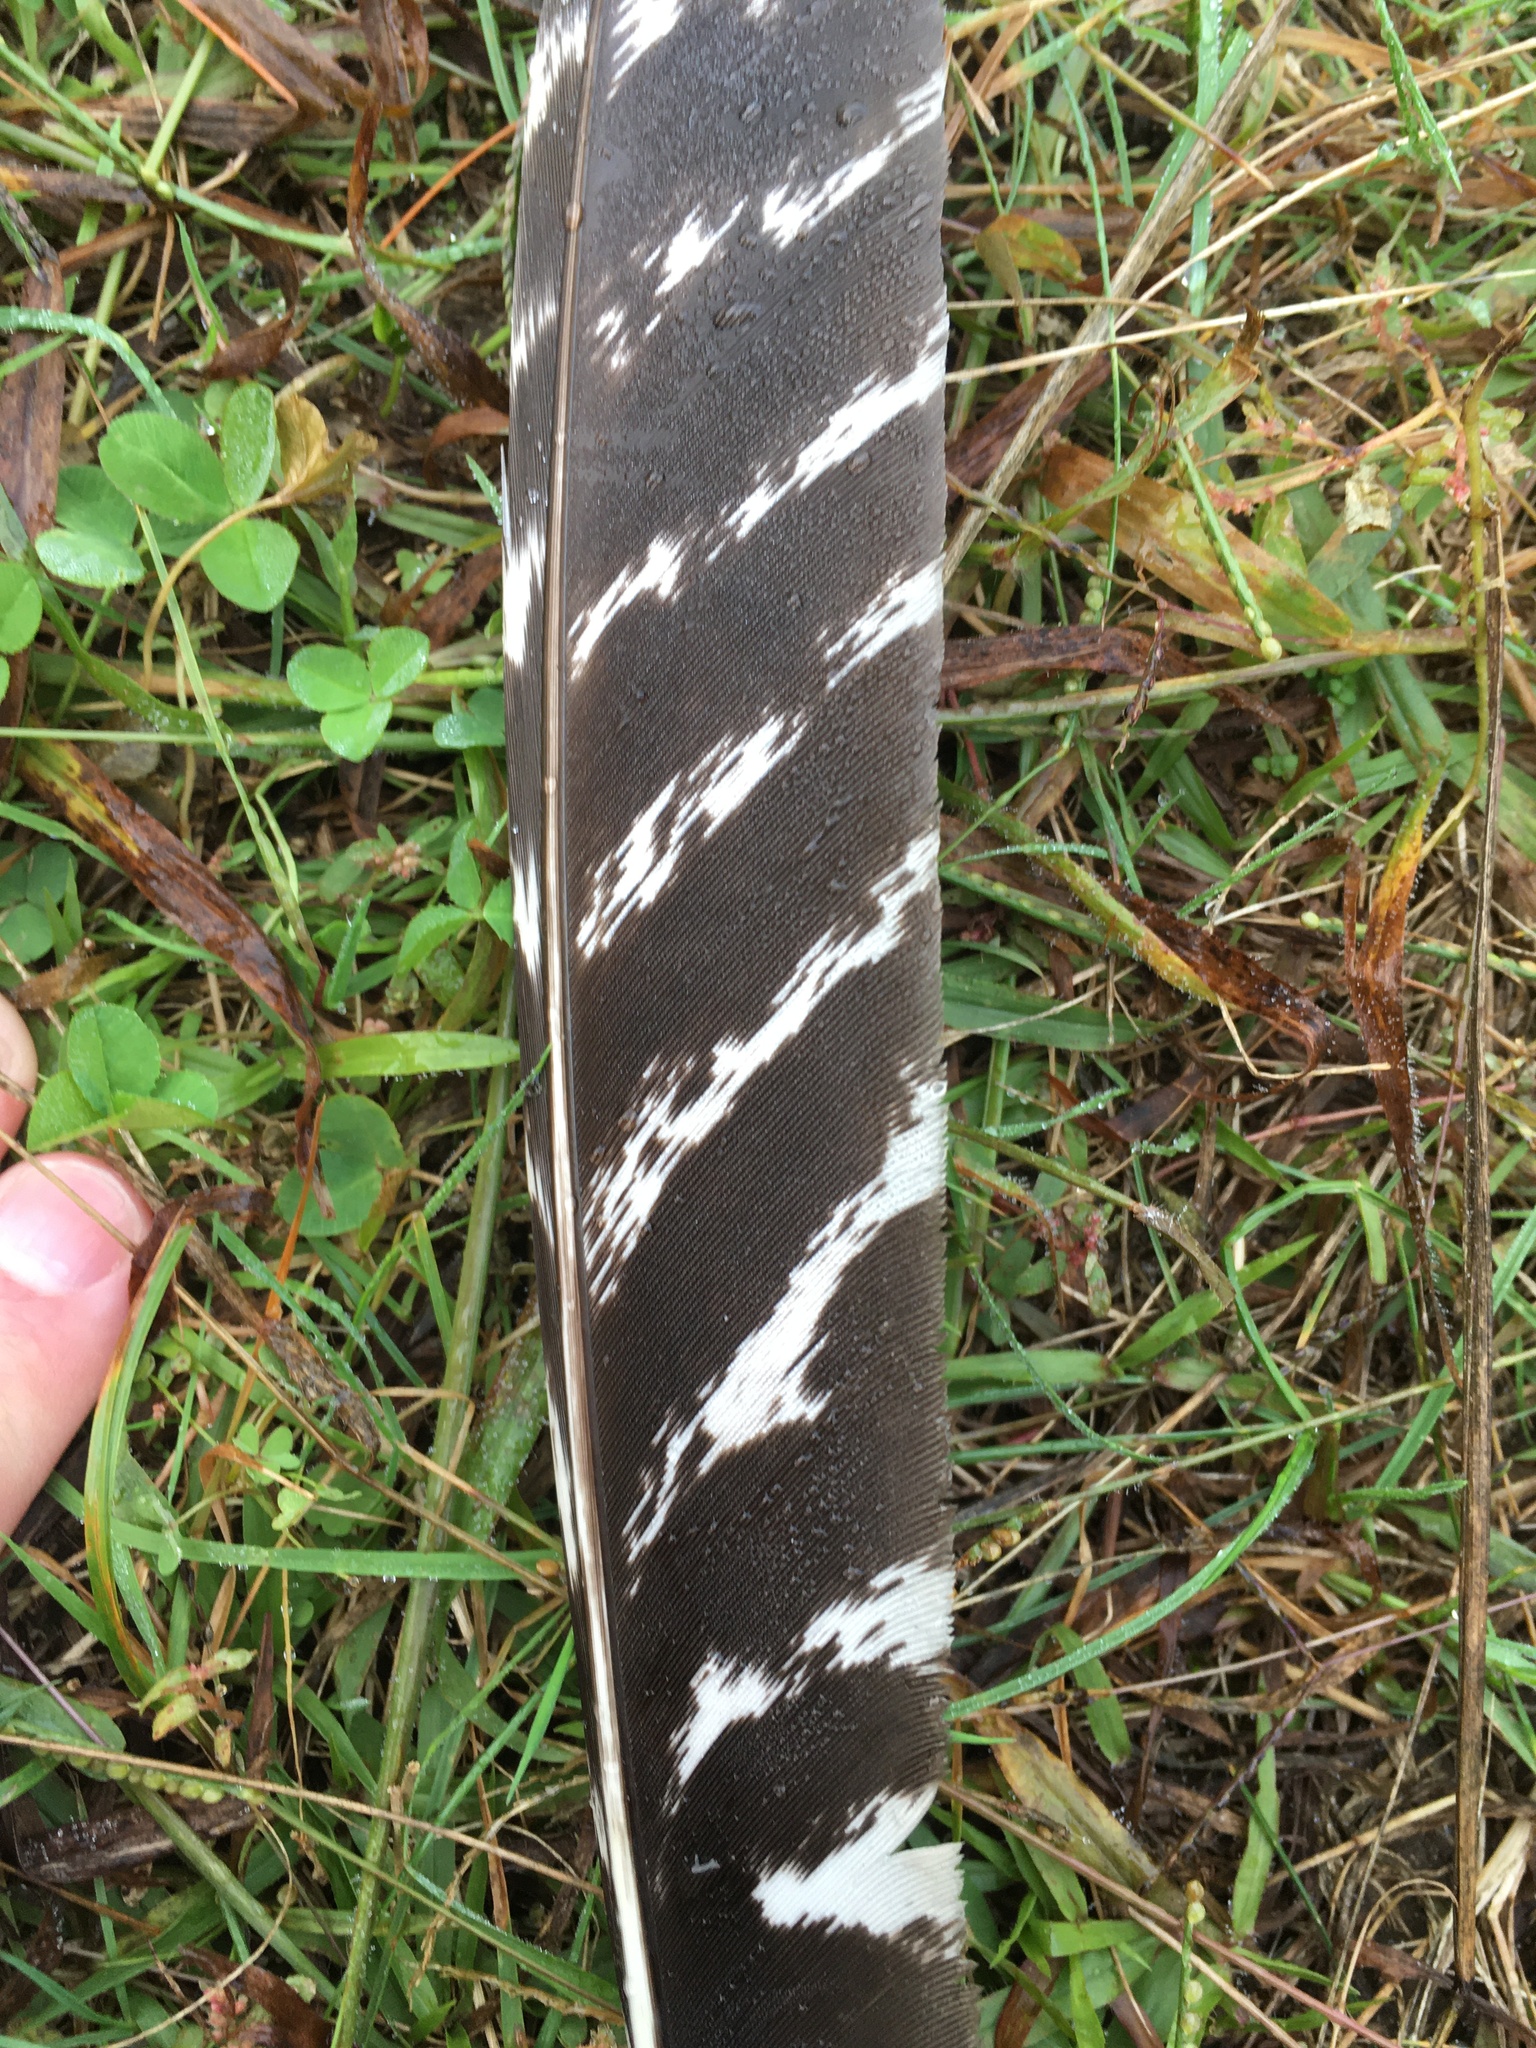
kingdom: Animalia
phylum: Chordata
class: Aves
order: Galliformes
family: Phasianidae
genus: Meleagris
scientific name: Meleagris gallopavo
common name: Wild turkey
